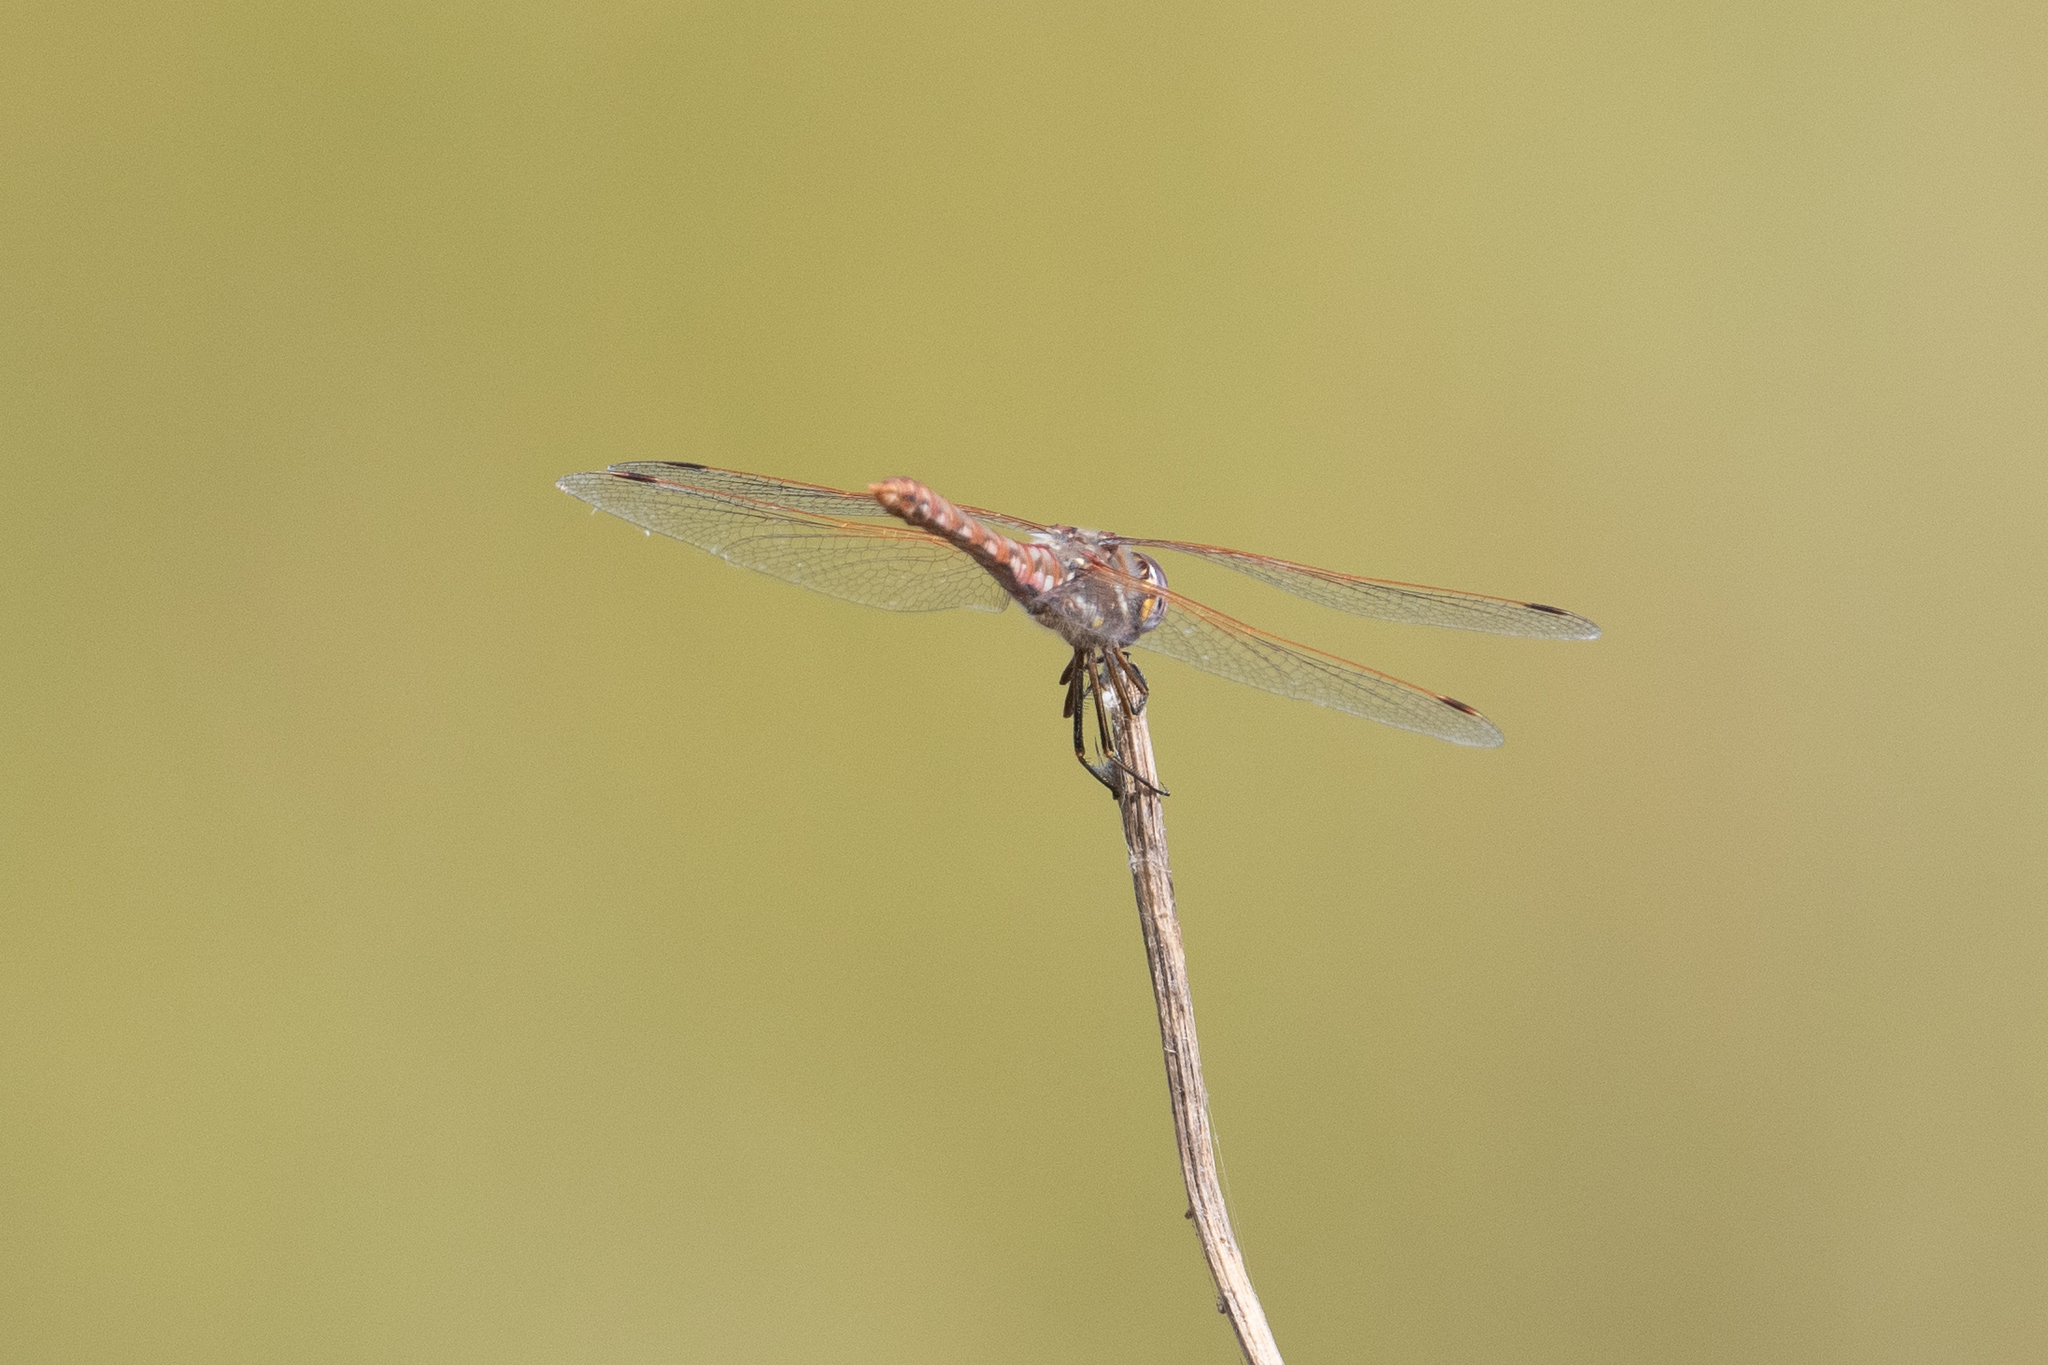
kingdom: Animalia
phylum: Arthropoda
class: Insecta
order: Odonata
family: Libellulidae
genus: Sympetrum
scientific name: Sympetrum corruptum
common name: Variegated meadowhawk
